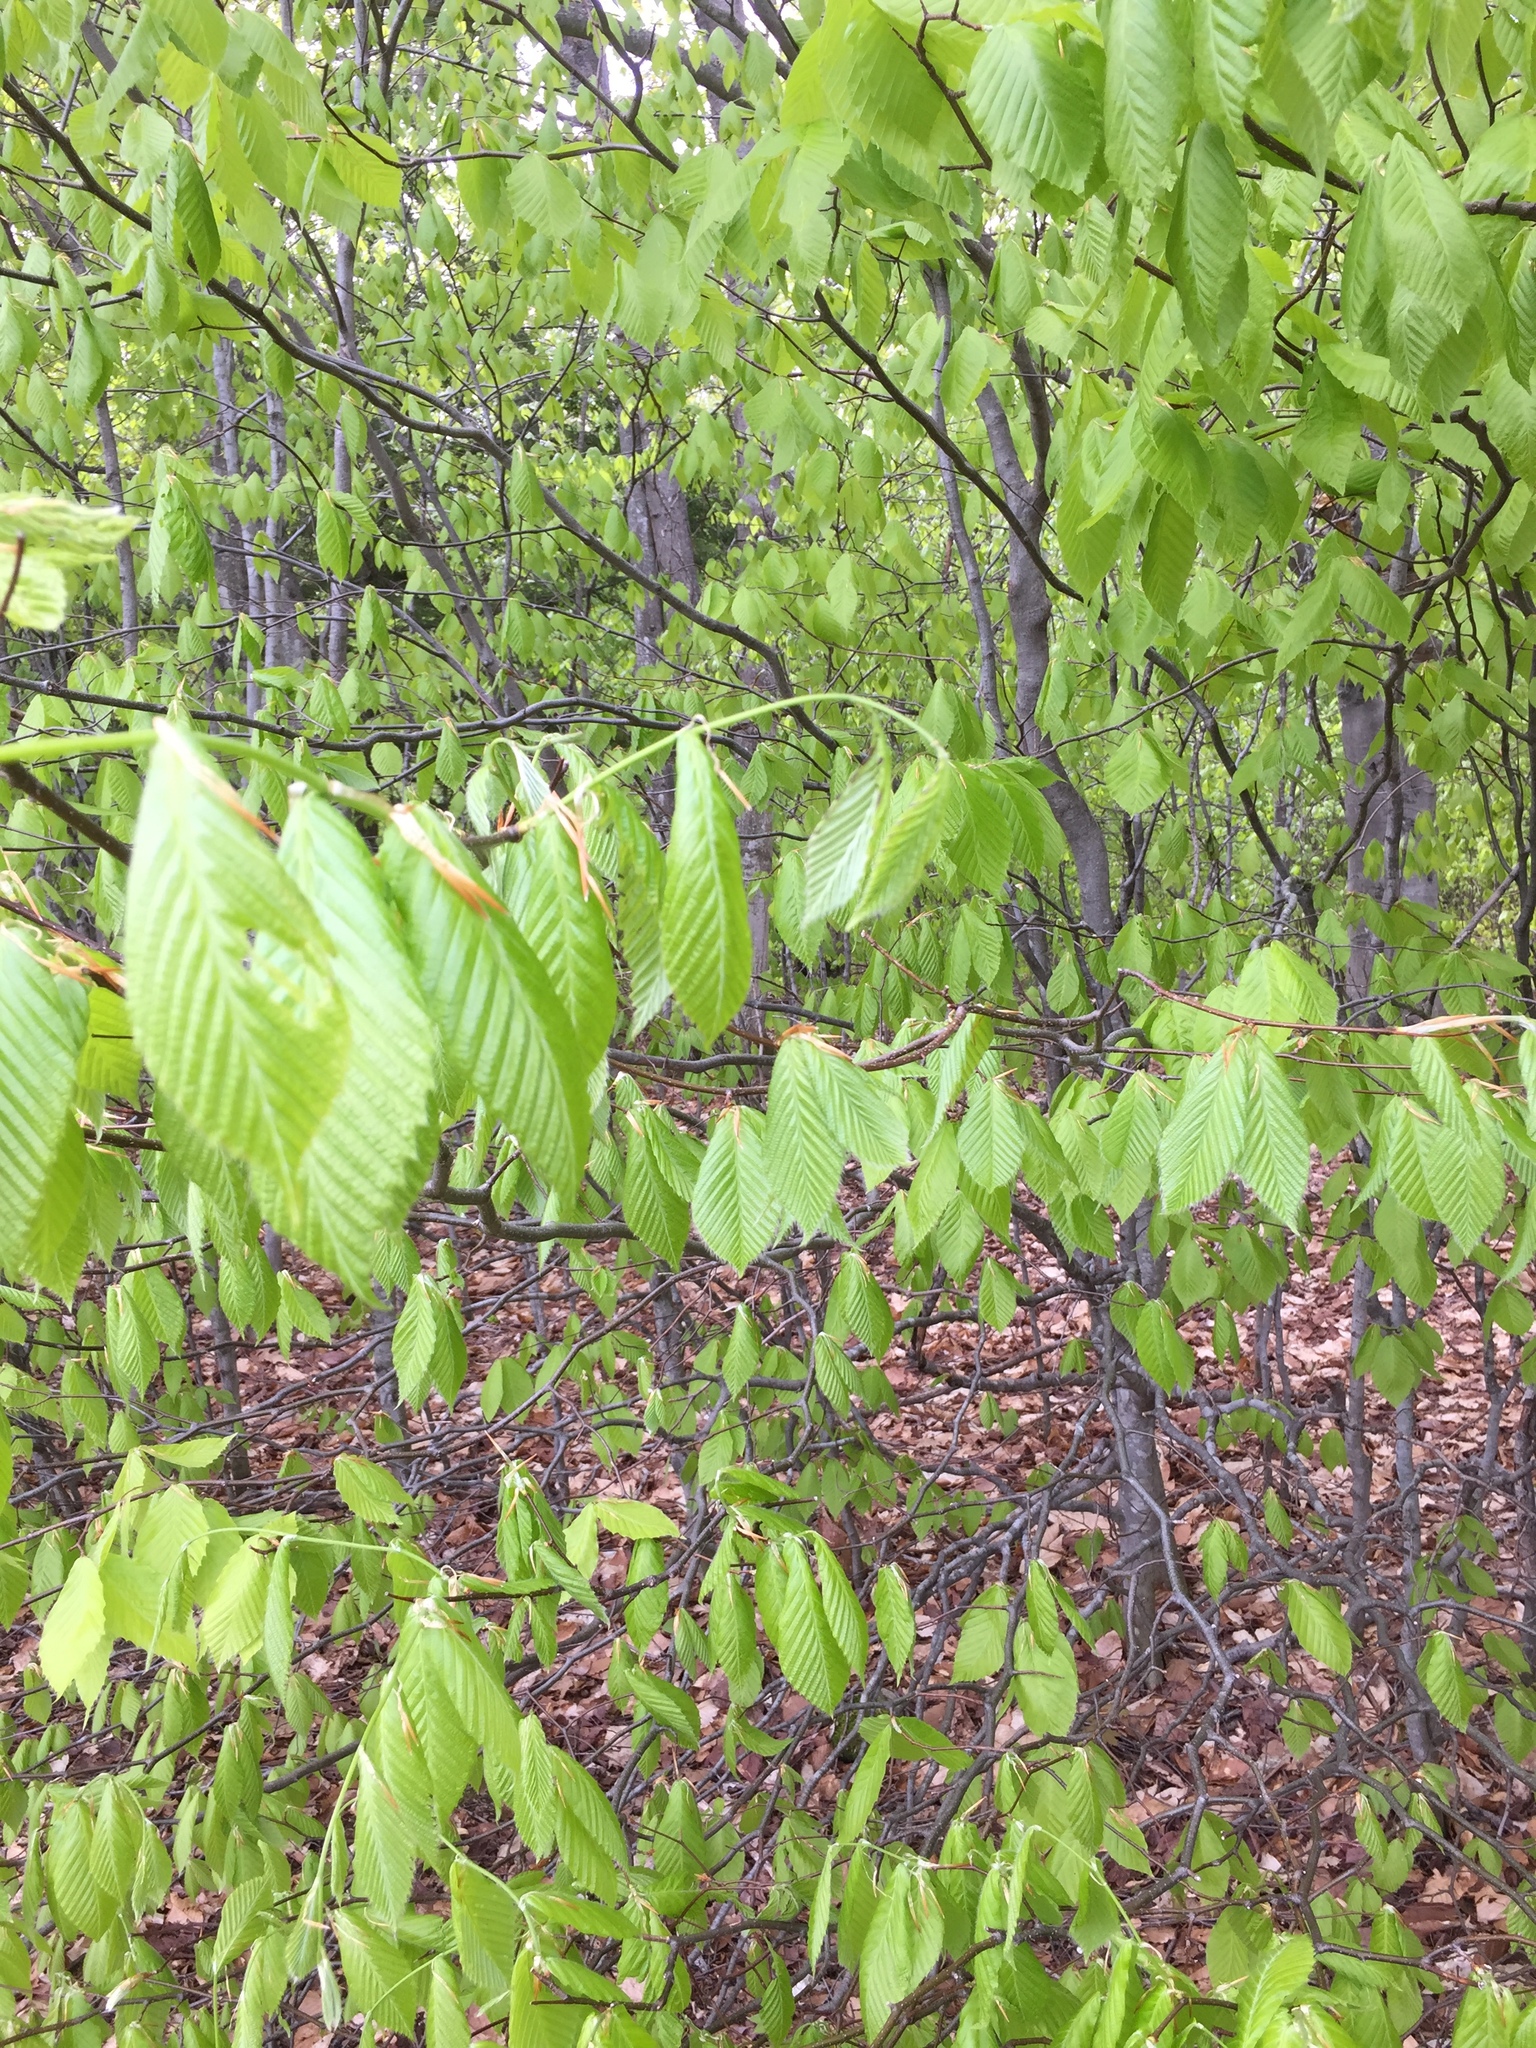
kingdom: Plantae
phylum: Tracheophyta
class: Magnoliopsida
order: Fagales
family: Fagaceae
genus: Fagus
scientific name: Fagus grandifolia
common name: American beech
